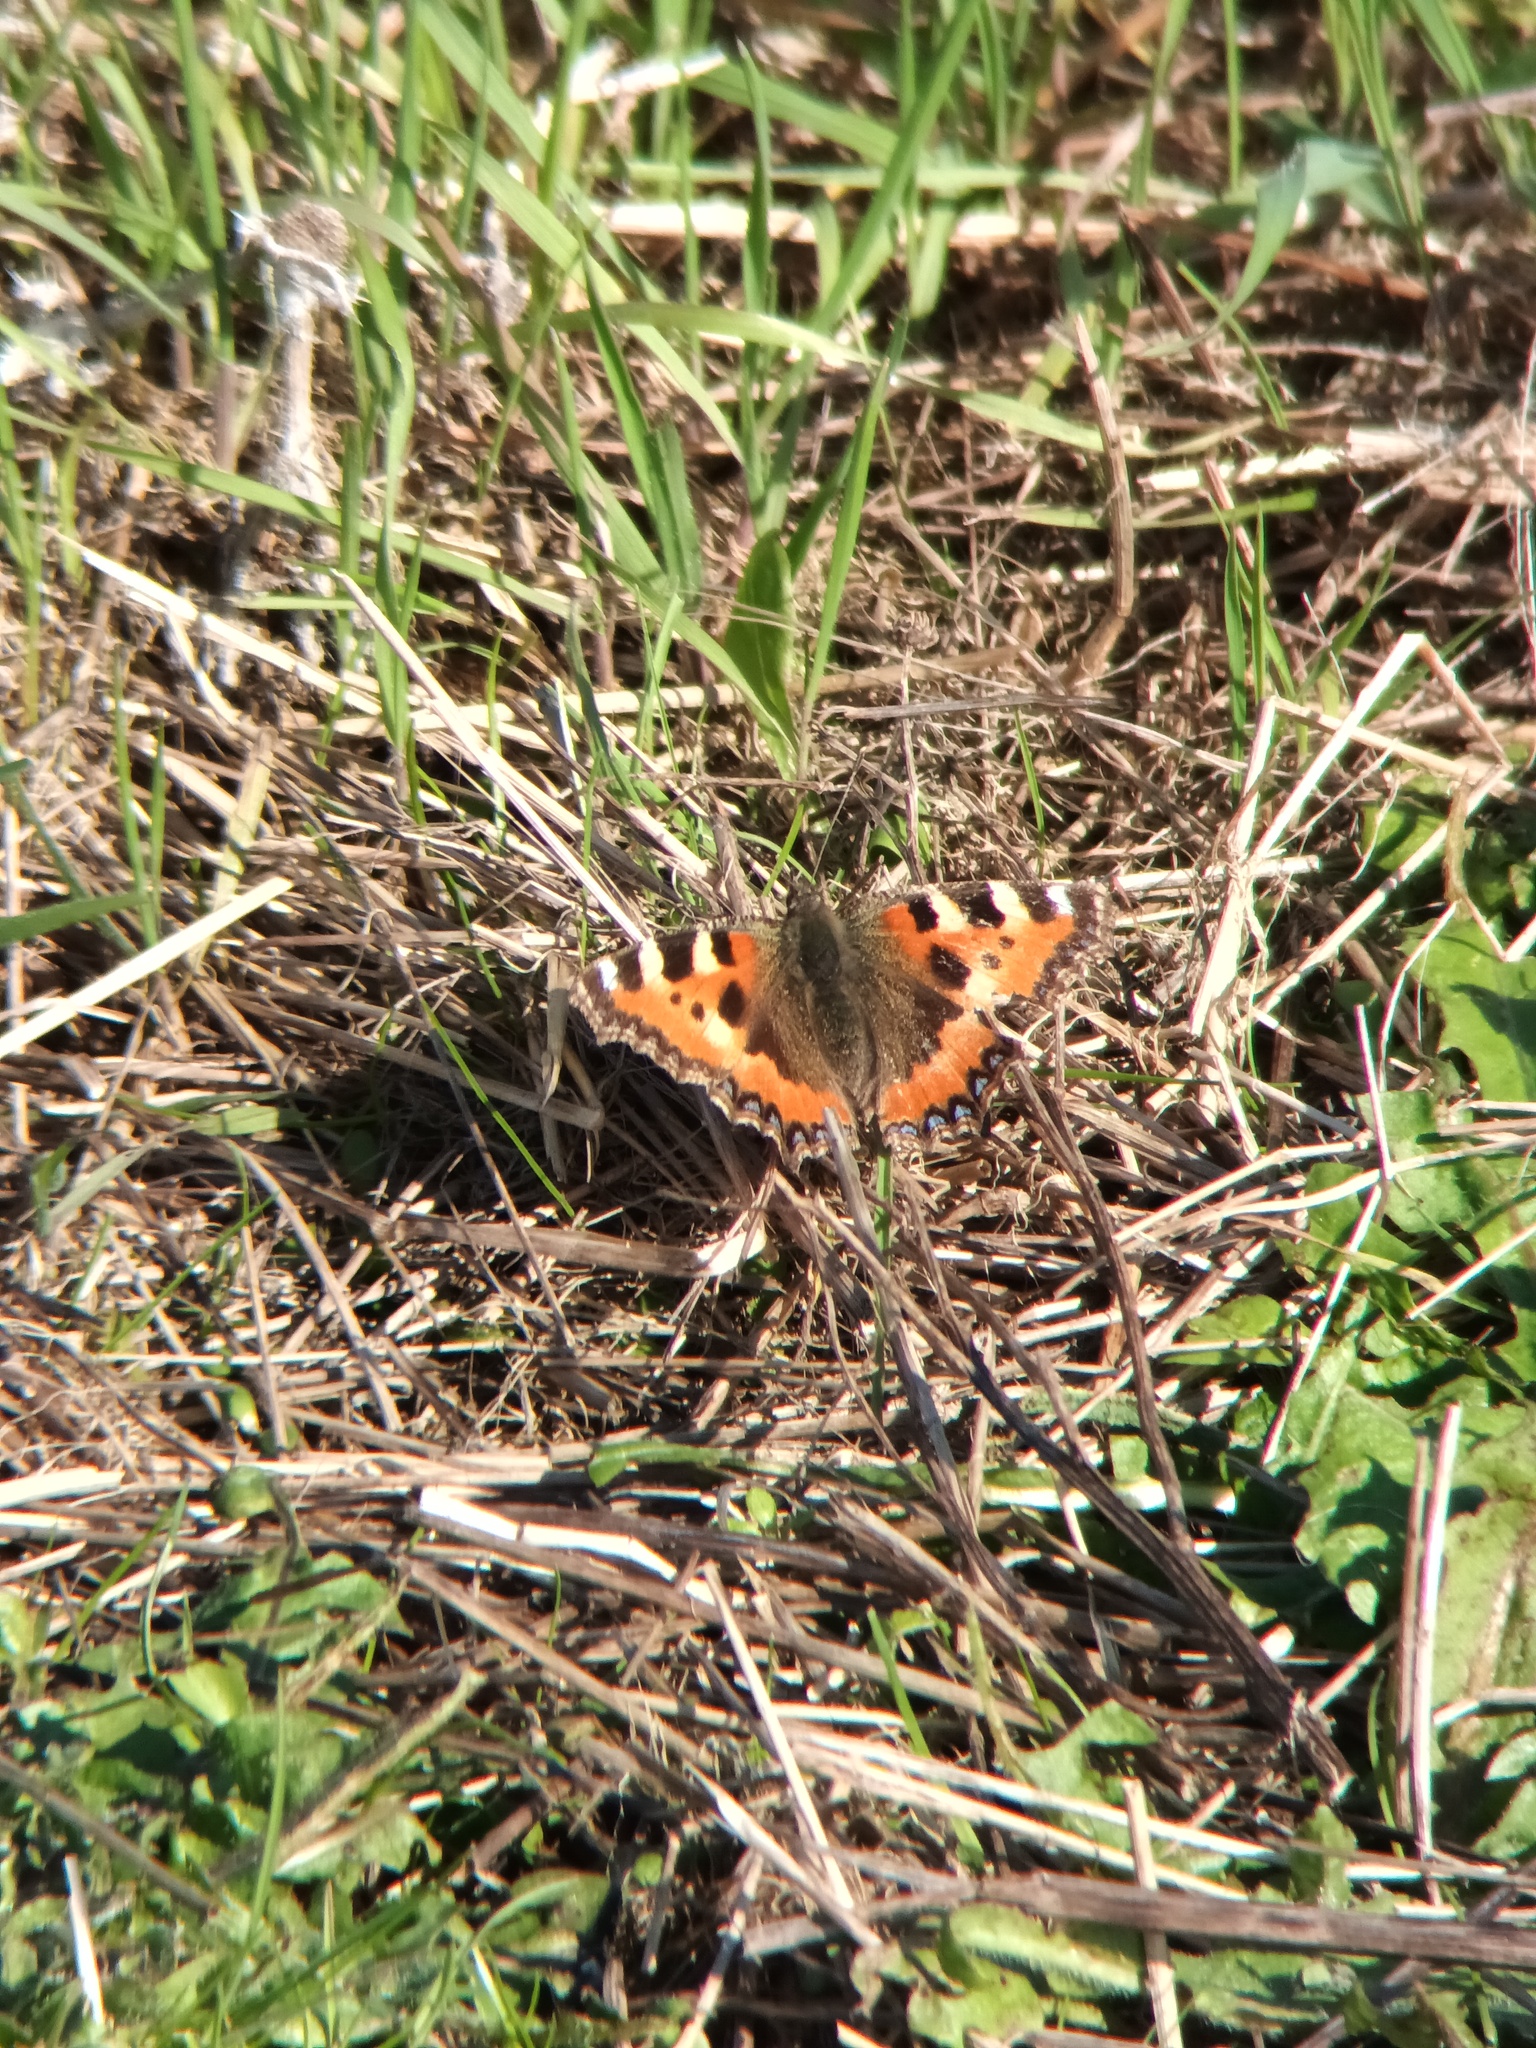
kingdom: Animalia
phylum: Arthropoda
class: Insecta
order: Lepidoptera
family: Nymphalidae
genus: Aglais
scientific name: Aglais urticae
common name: Small tortoiseshell
